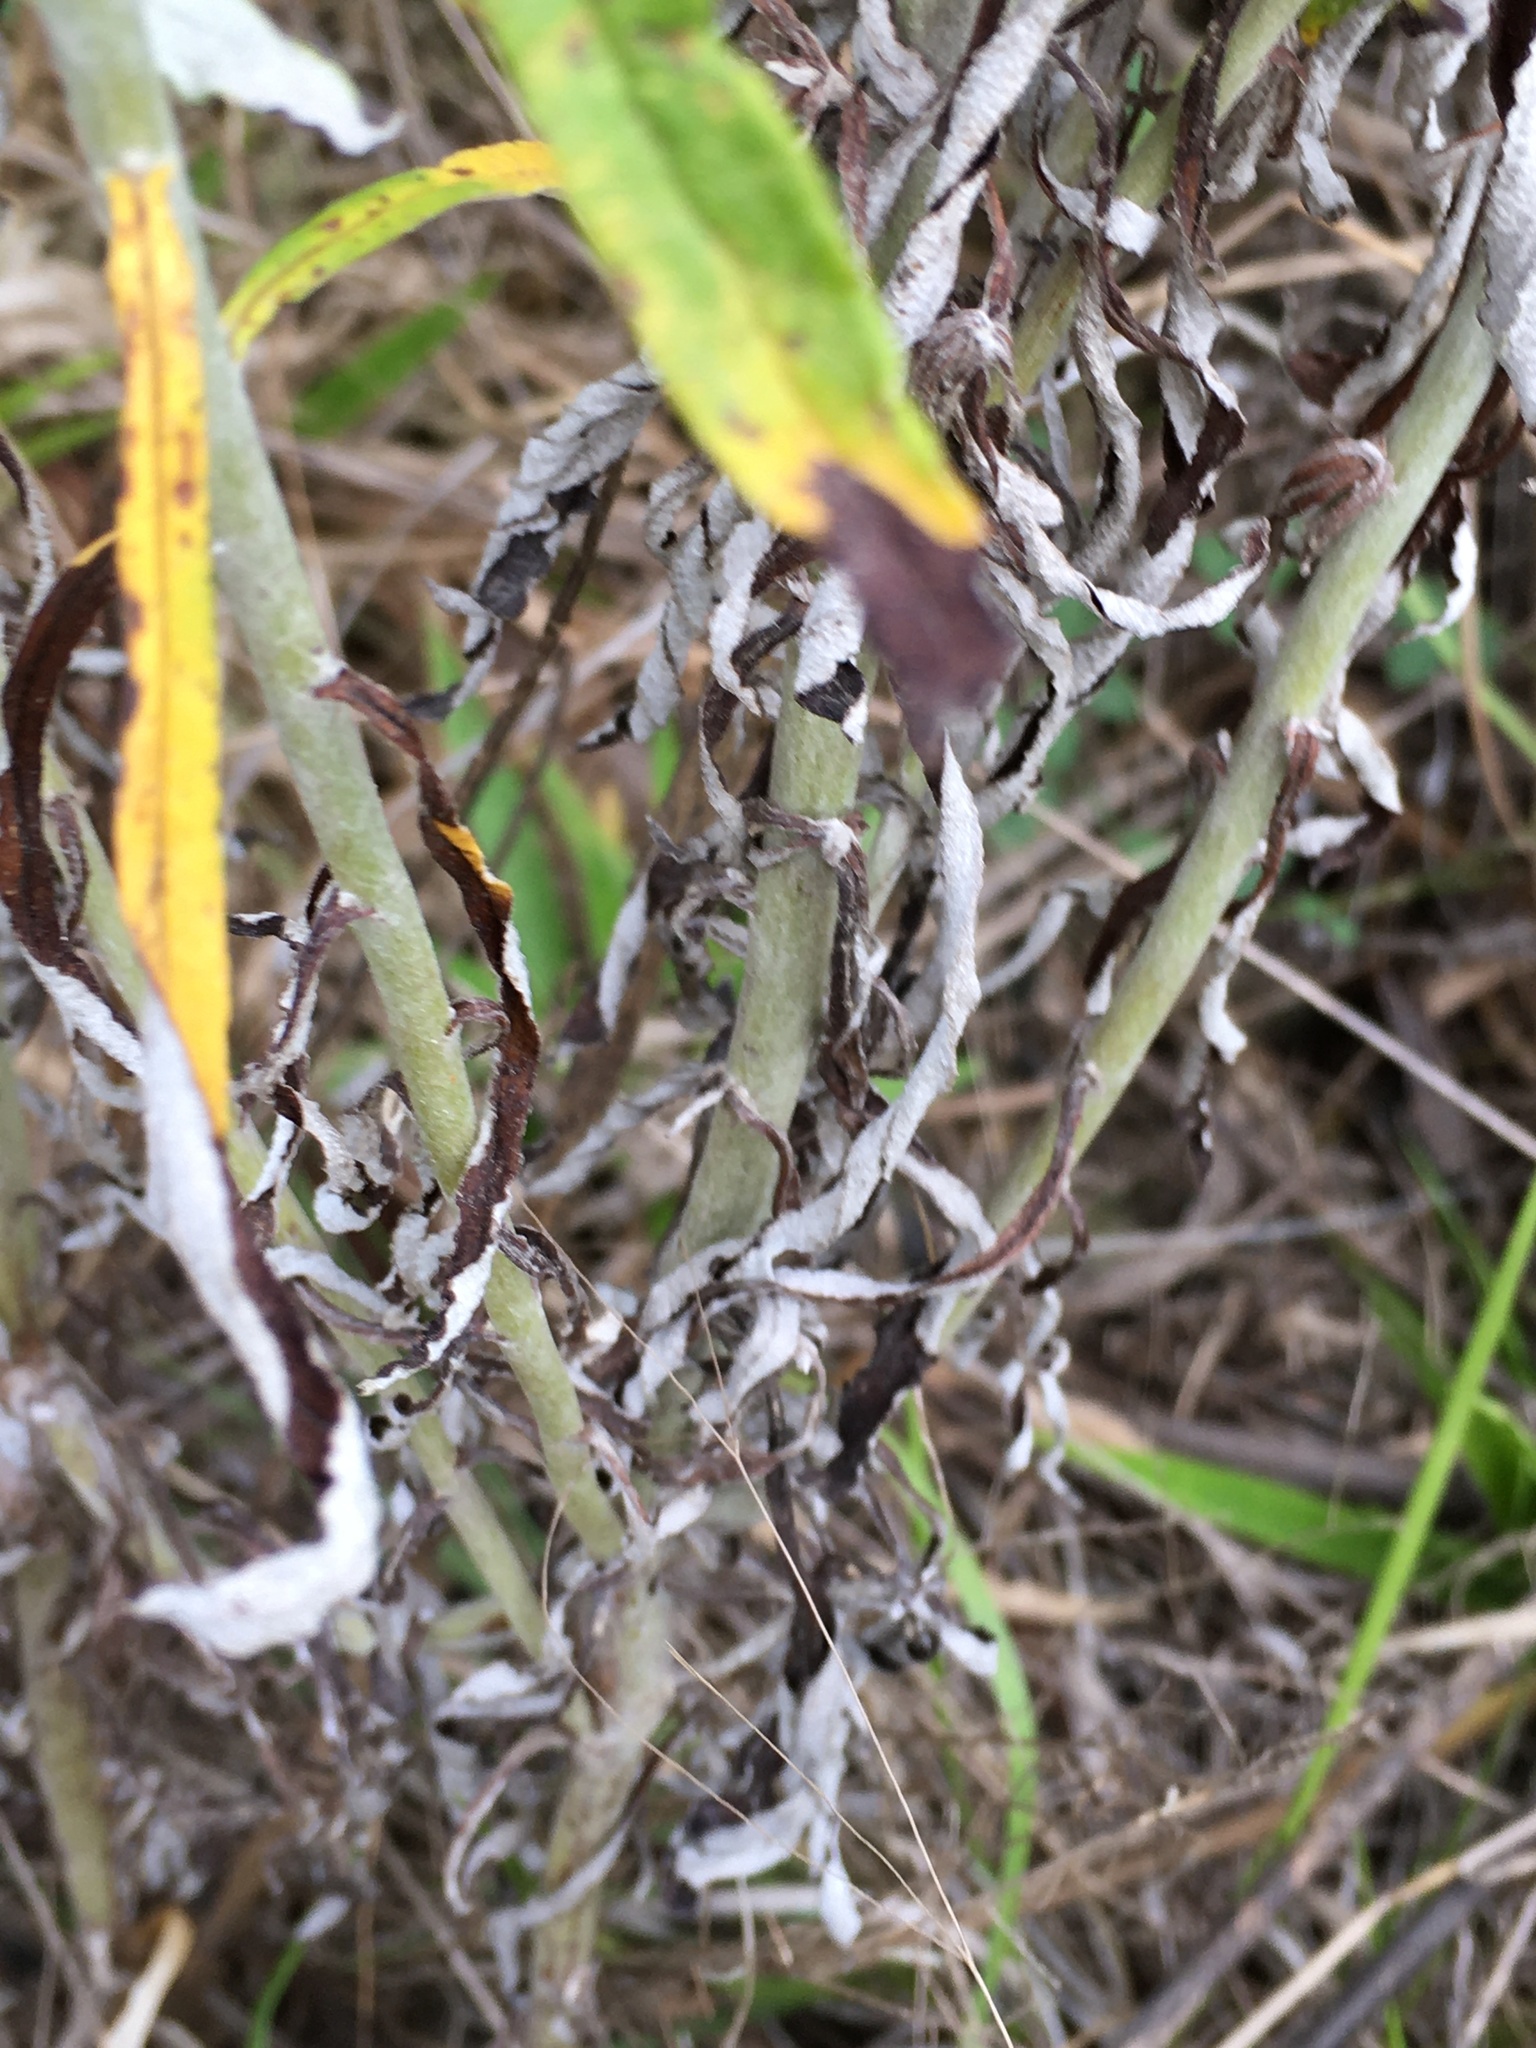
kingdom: Plantae
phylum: Tracheophyta
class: Magnoliopsida
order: Asterales
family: Asteraceae
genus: Pseudognaphalium
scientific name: Pseudognaphalium obtusifolium
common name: Eastern rabbit-tobacco
